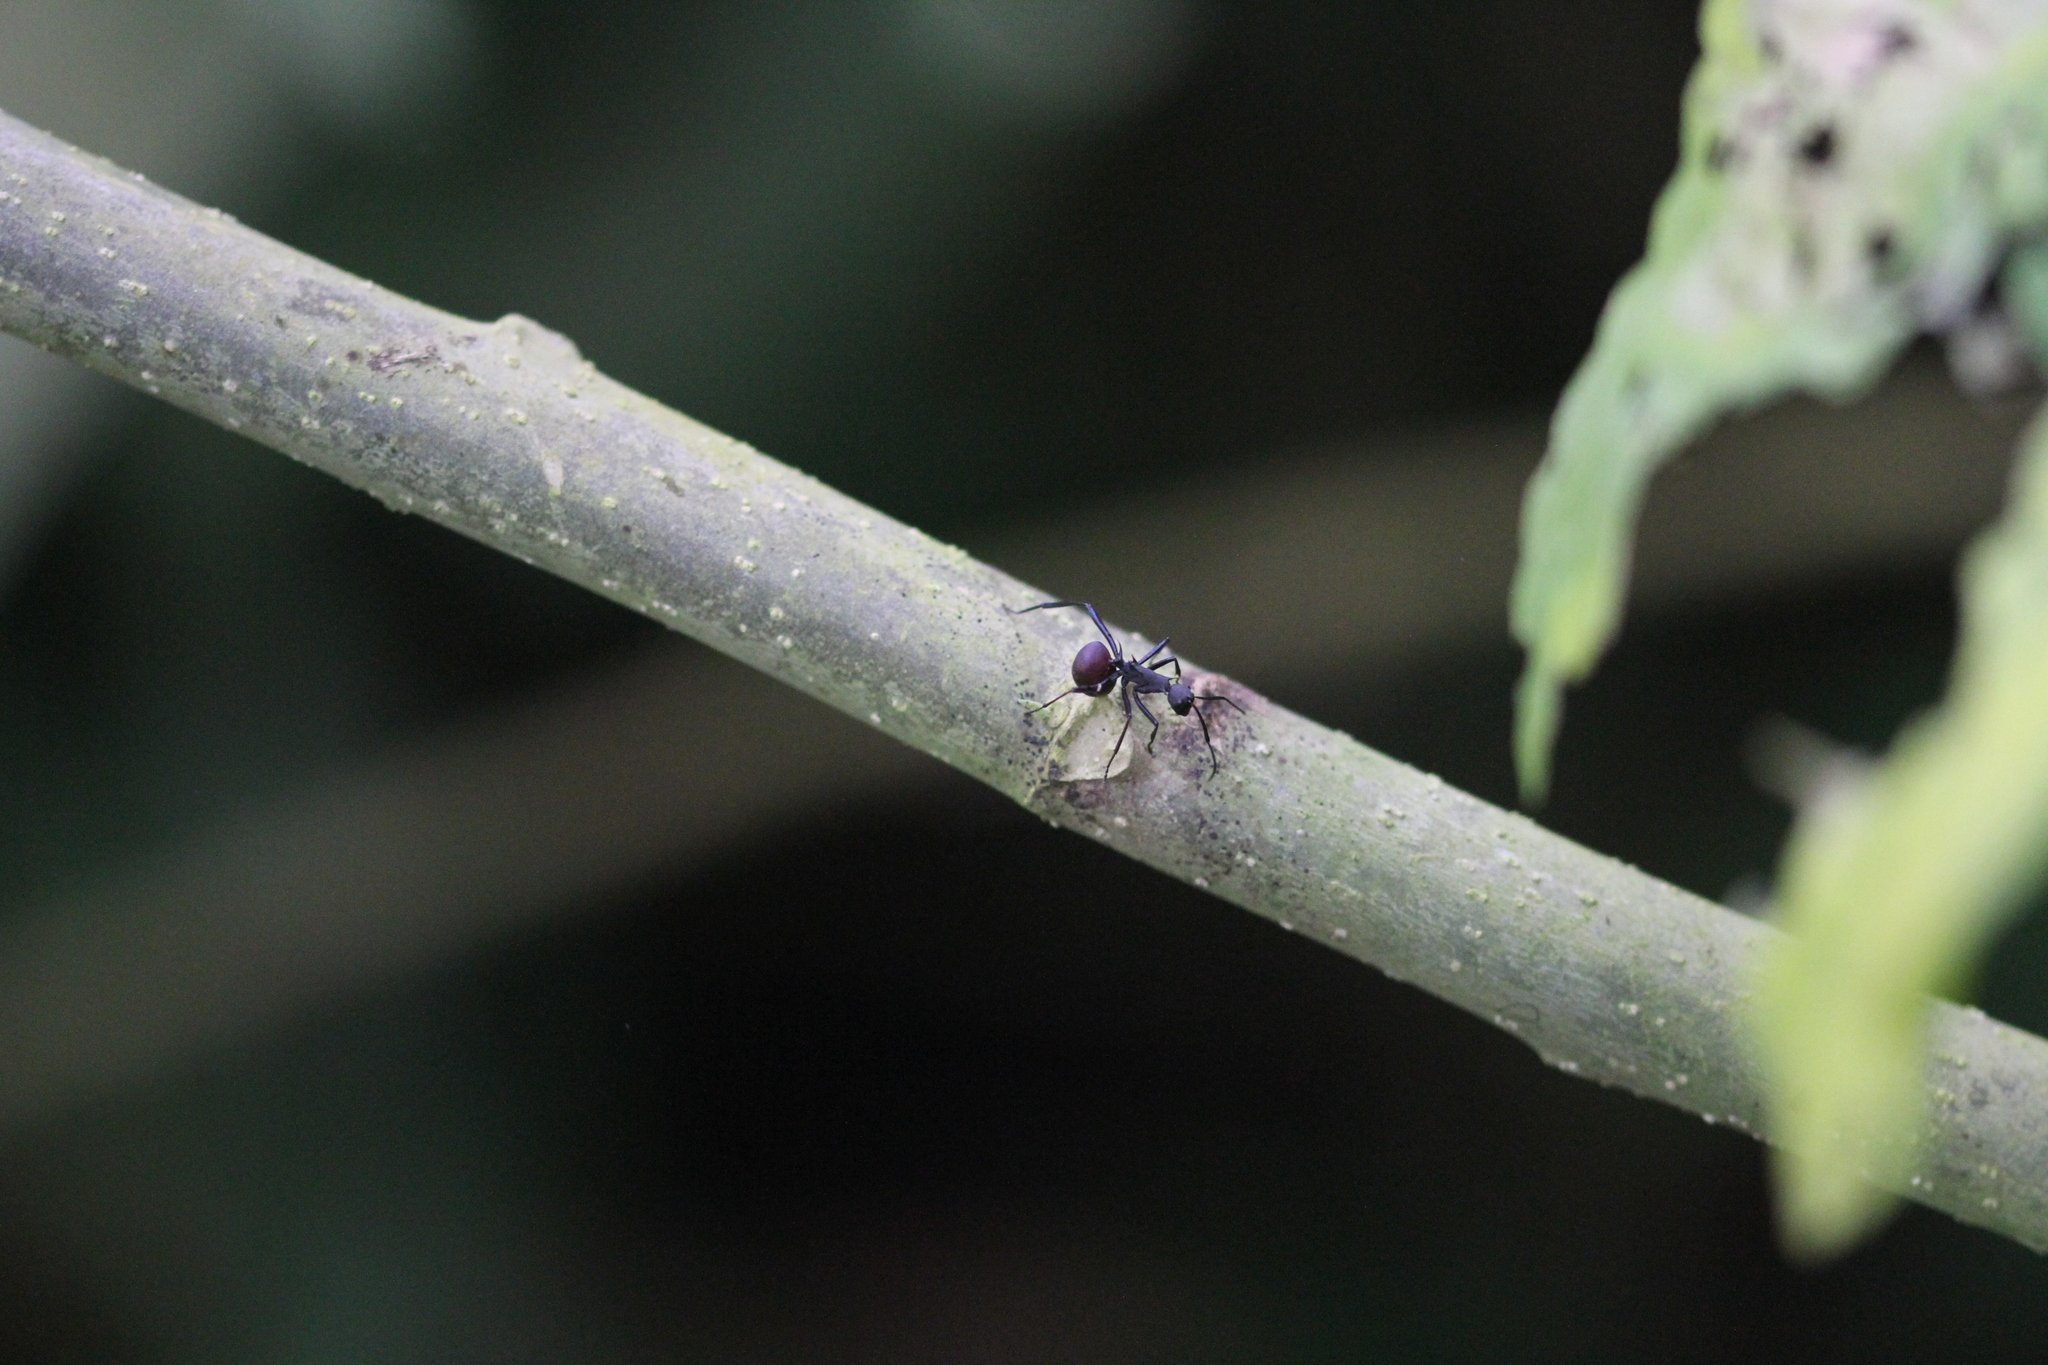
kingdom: Animalia
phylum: Arthropoda
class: Insecta
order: Hymenoptera
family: Formicidae
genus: Polyrhachis
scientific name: Polyrhachis abdominalis
